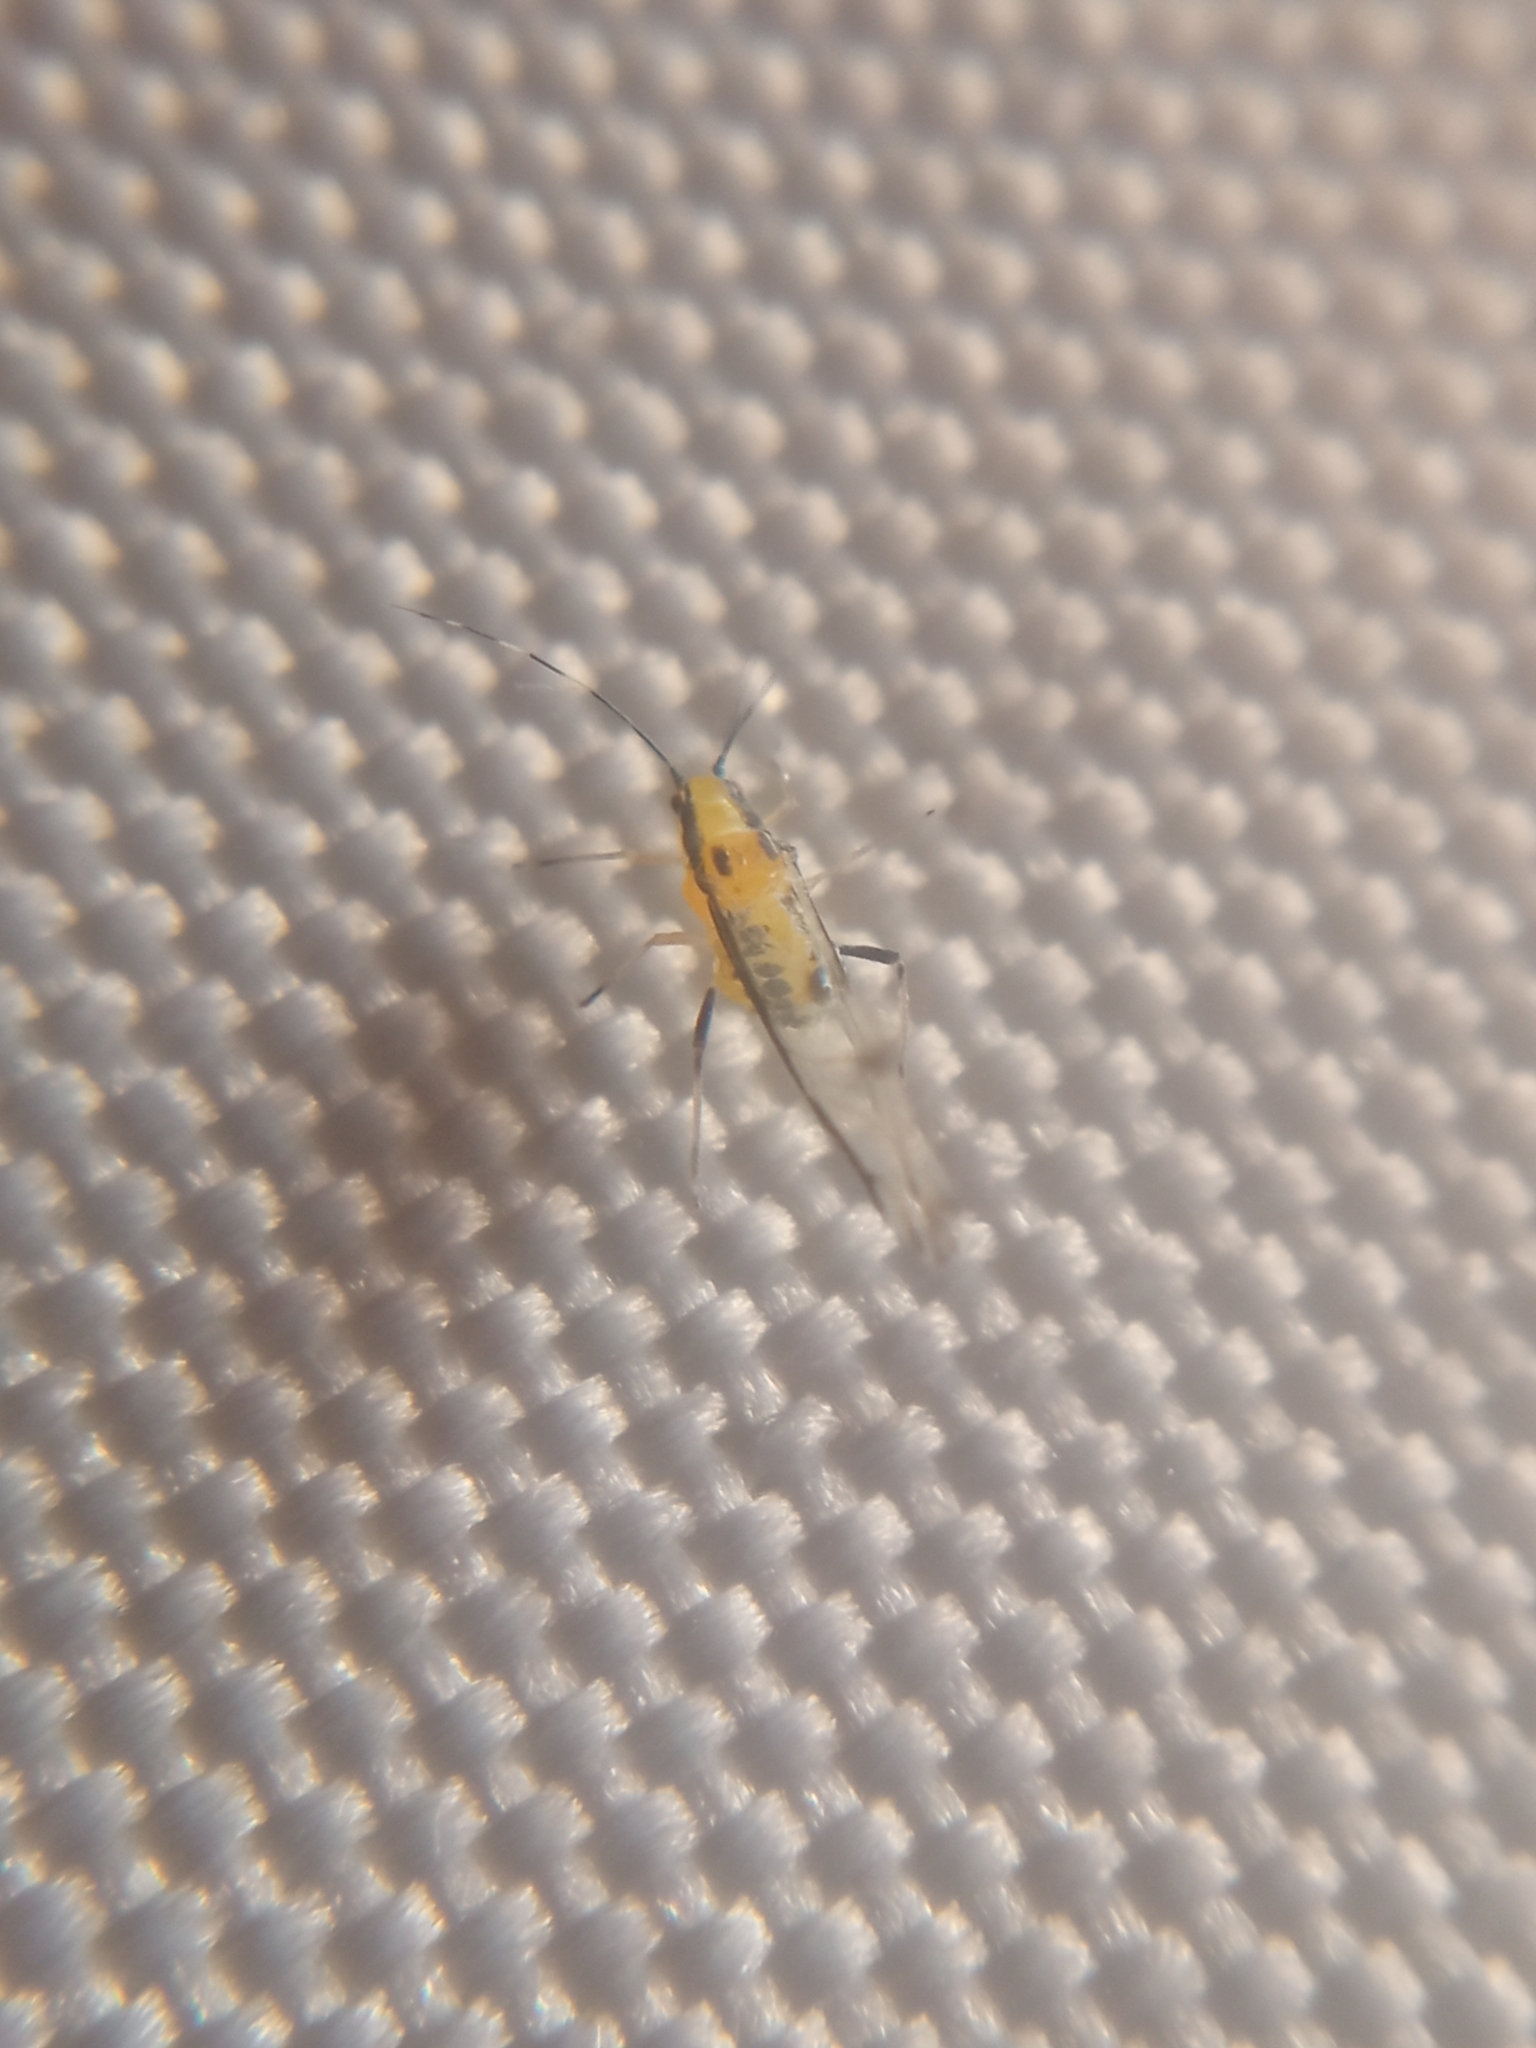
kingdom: Animalia
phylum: Arthropoda
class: Insecta
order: Hemiptera
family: Aphididae
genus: Eucallipterus
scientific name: Eucallipterus tiliae
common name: Aphid
